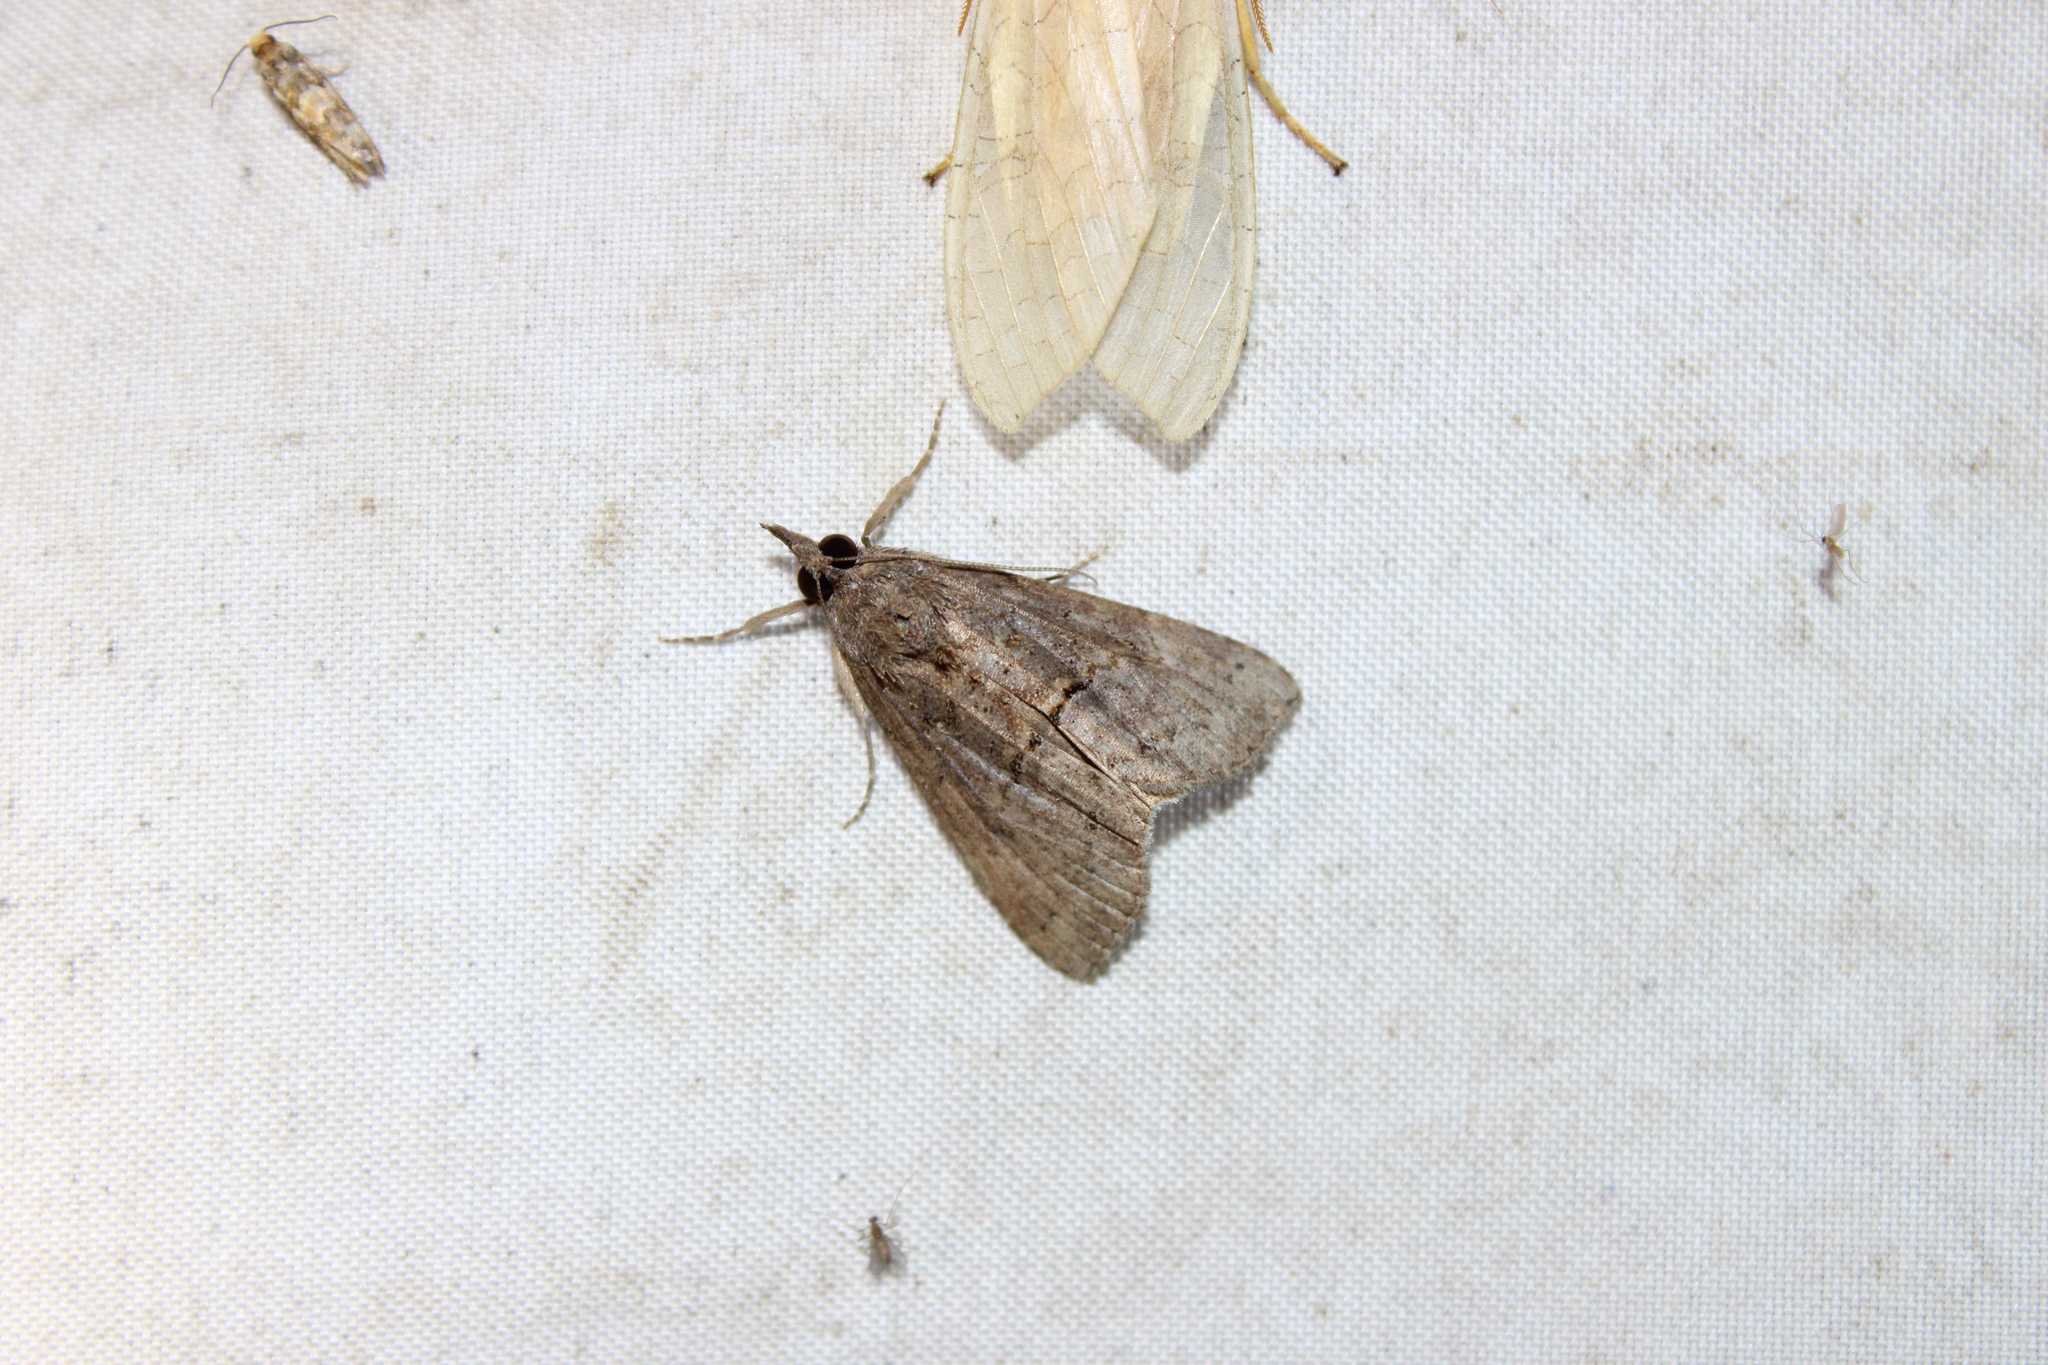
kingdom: Animalia
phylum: Arthropoda
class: Insecta
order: Lepidoptera
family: Erebidae
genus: Hypena
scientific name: Hypena scabra
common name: Green cloverworm
